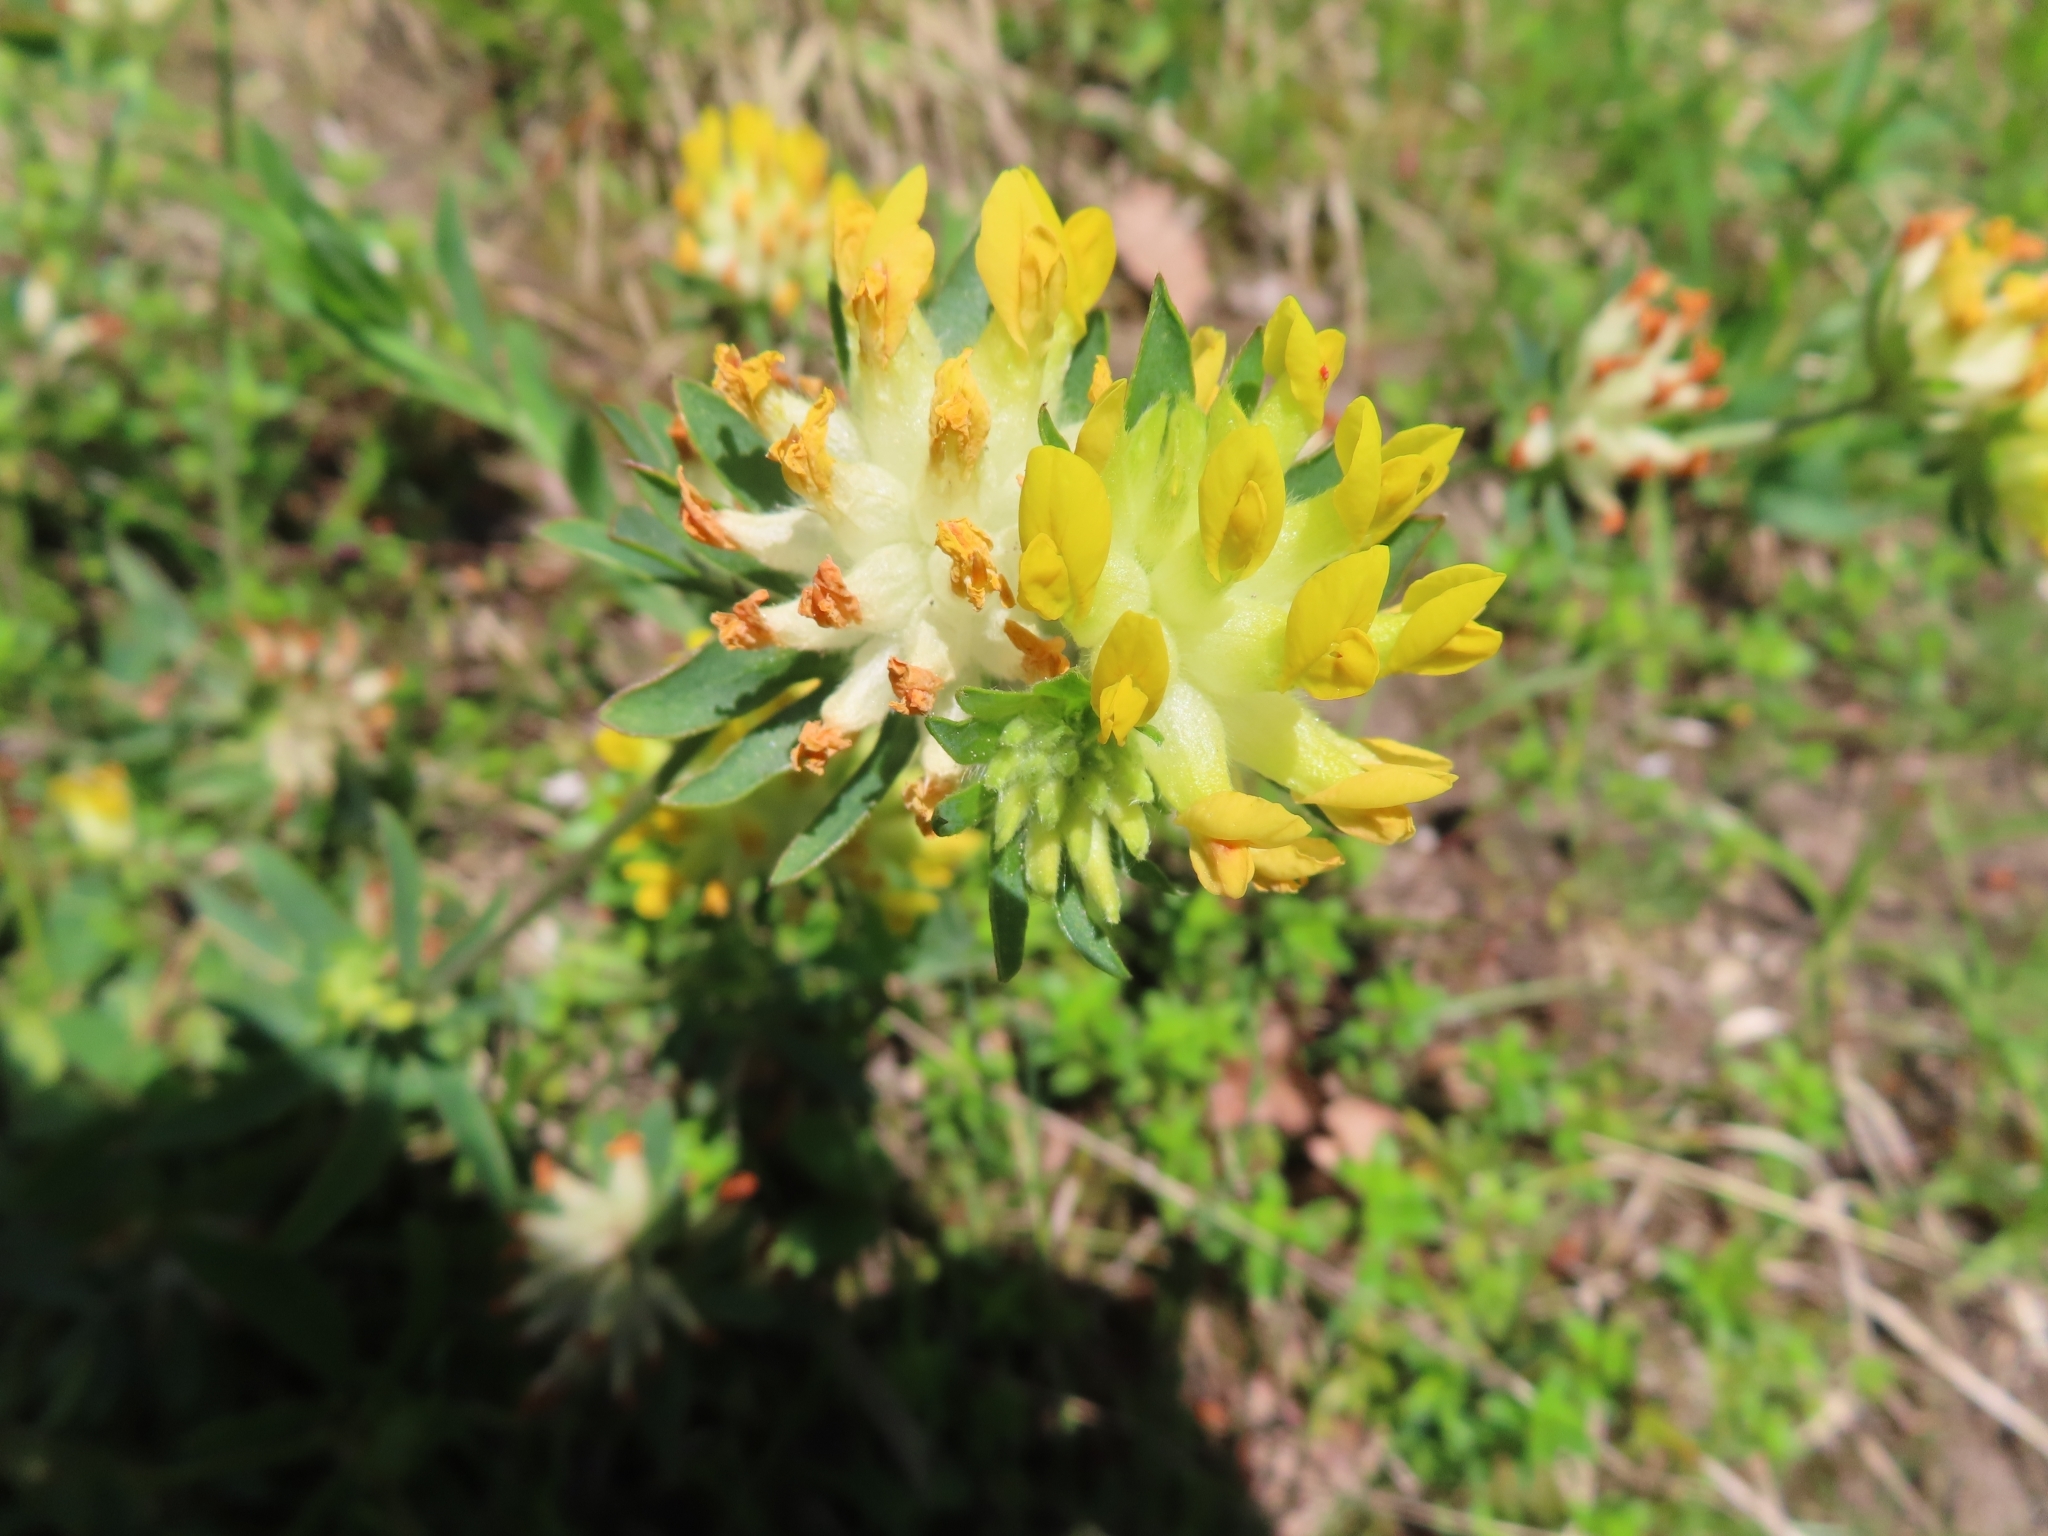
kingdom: Plantae
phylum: Tracheophyta
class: Magnoliopsida
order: Fabales
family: Fabaceae
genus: Anthyllis
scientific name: Anthyllis vulneraria
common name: Kidney vetch
